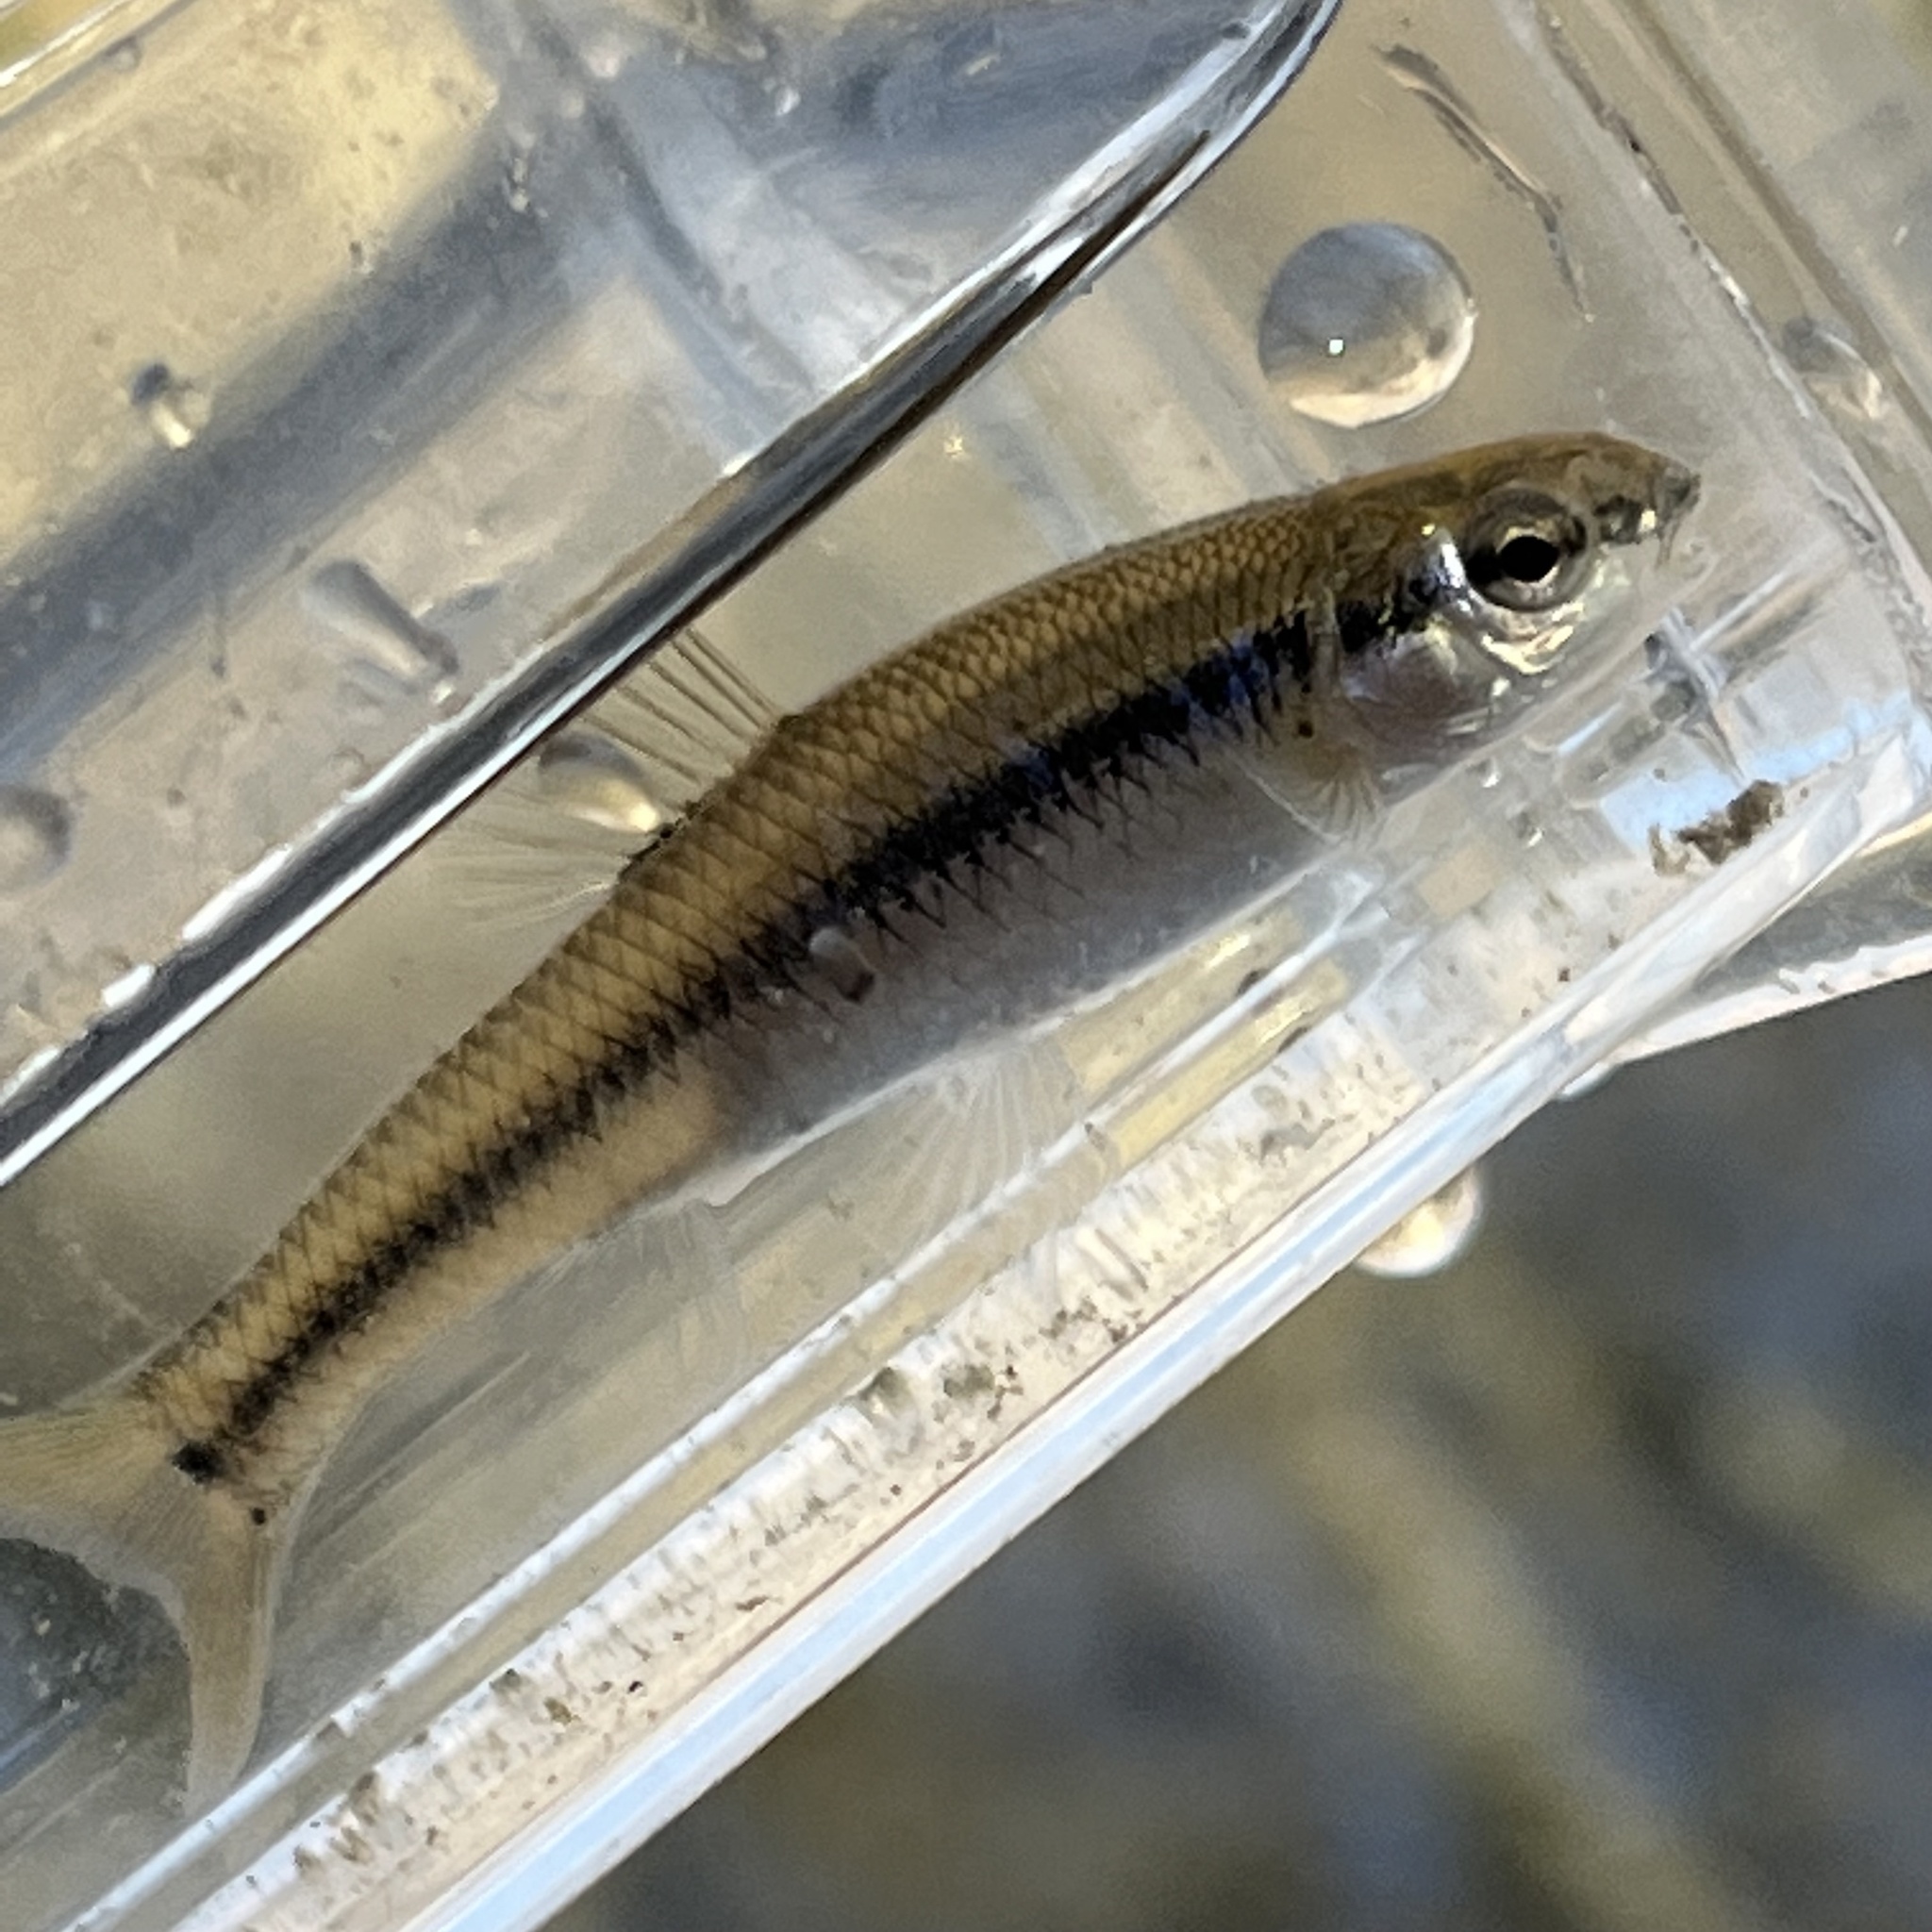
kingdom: Animalia
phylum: Chordata
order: Cypriniformes
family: Cyprinidae
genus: Pimephales
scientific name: Pimephales notatus
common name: Bluntnose minnow
